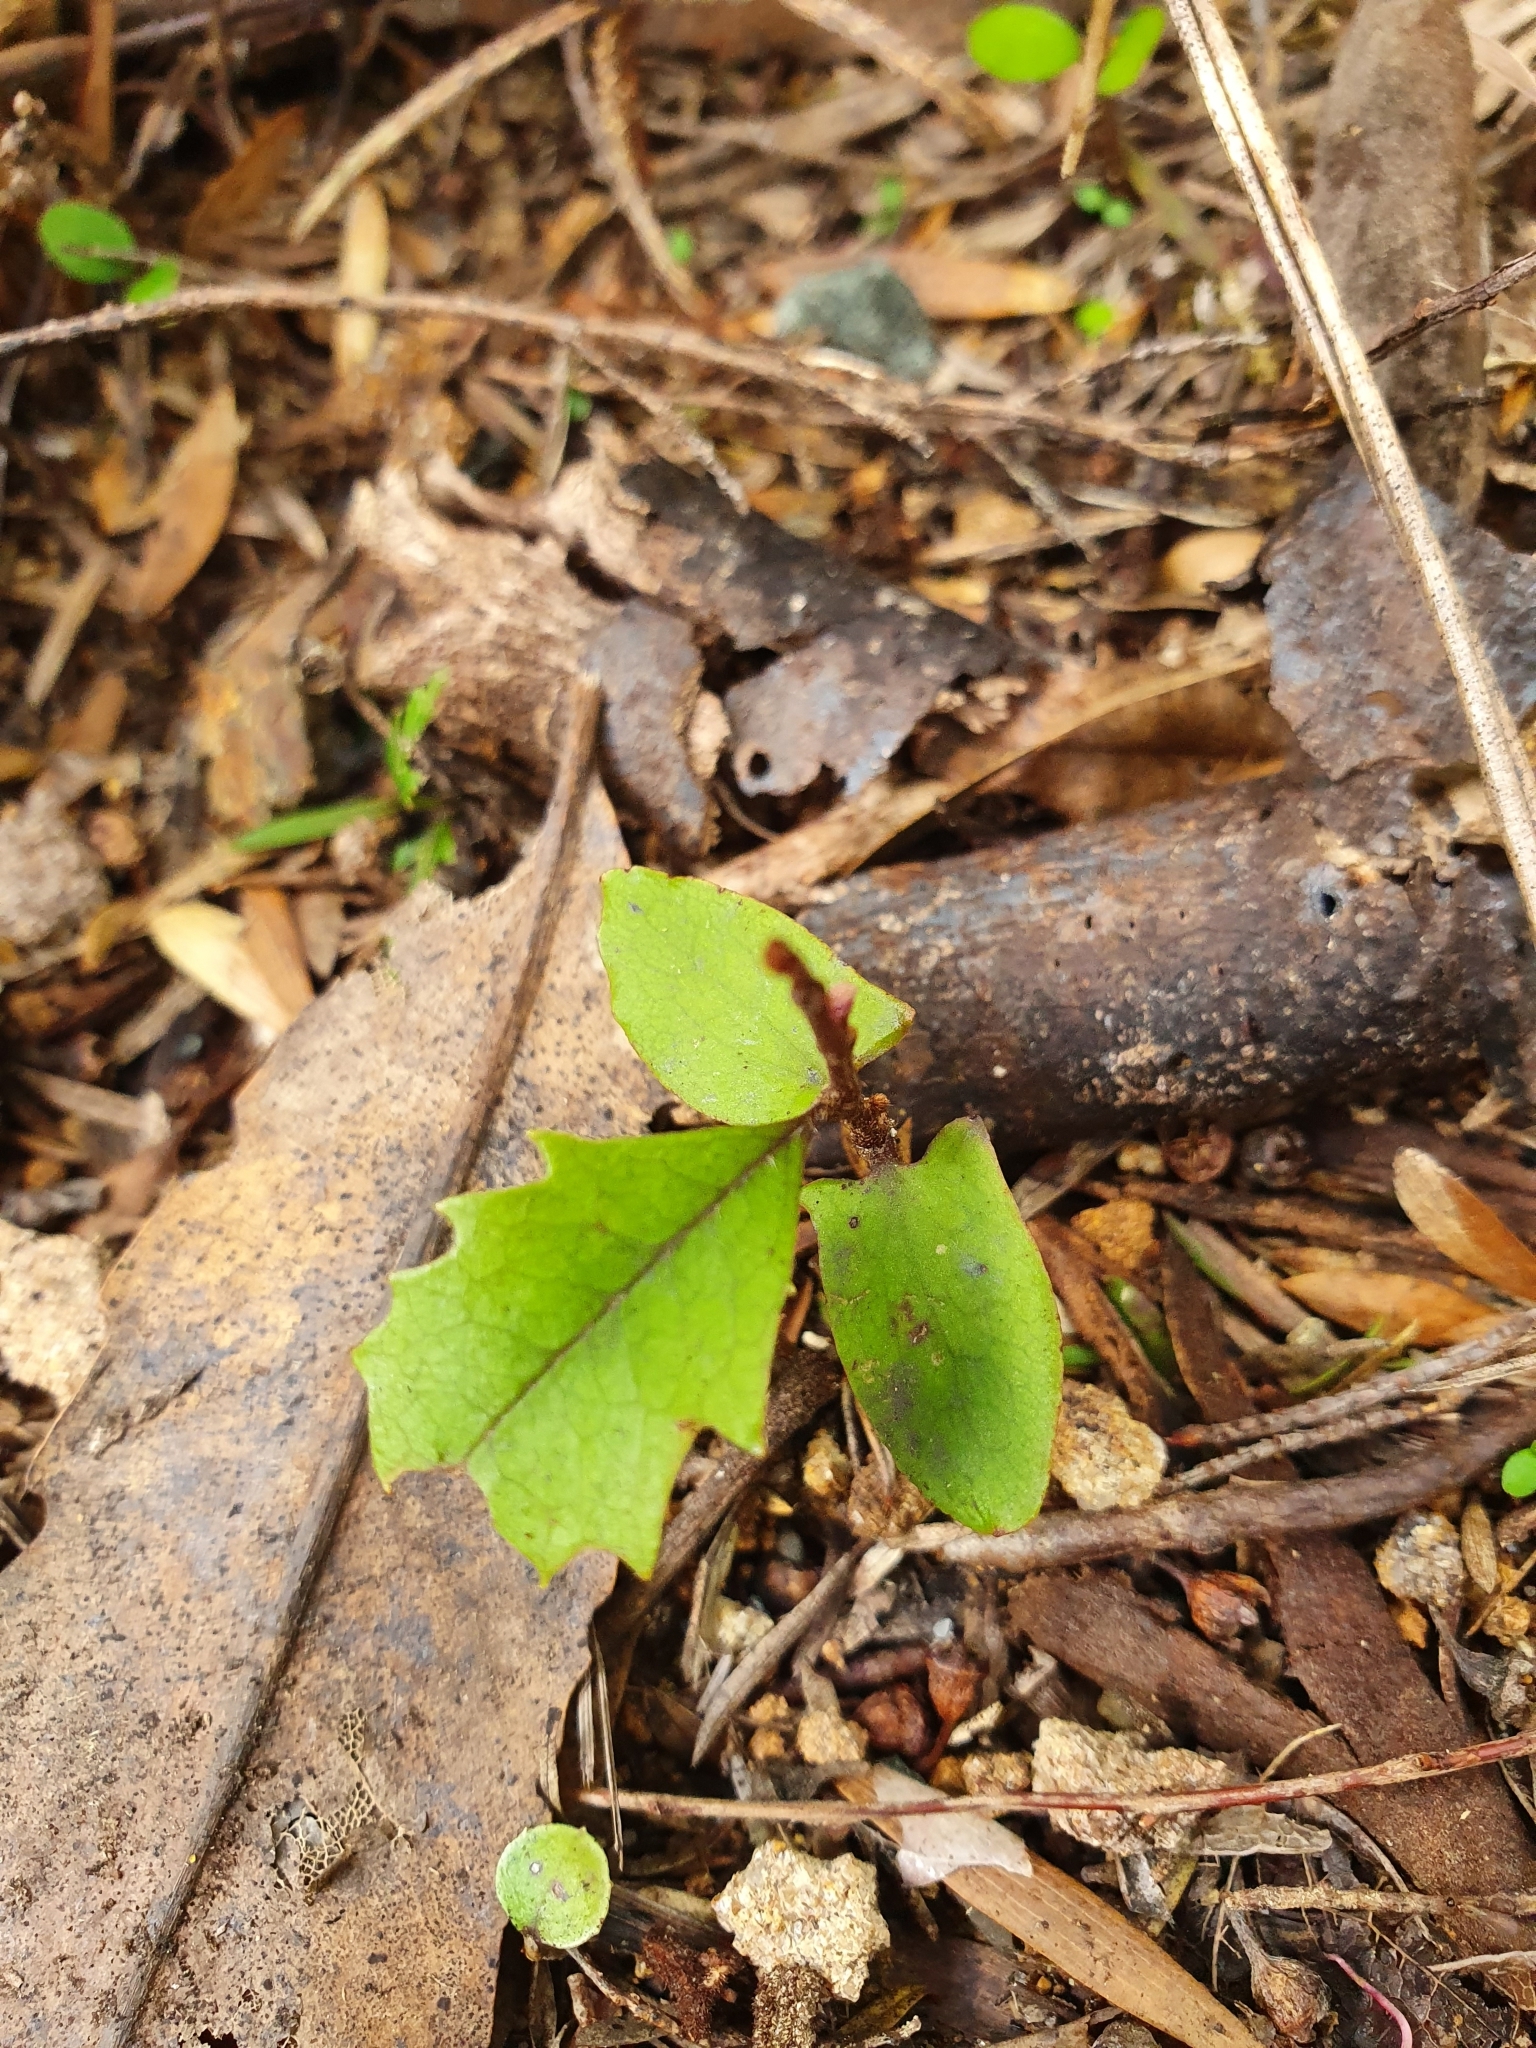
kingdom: Plantae
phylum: Tracheophyta
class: Magnoliopsida
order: Proteales
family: Proteaceae
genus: Knightia
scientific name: Knightia excelsa
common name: New zealand-honeysuckle
